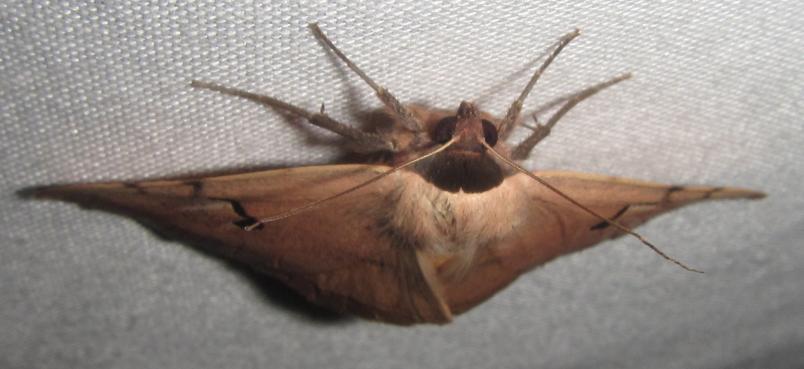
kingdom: Animalia
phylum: Arthropoda
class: Insecta
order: Lepidoptera
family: Erebidae
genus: Hypopyra
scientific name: Hypopyra africana
